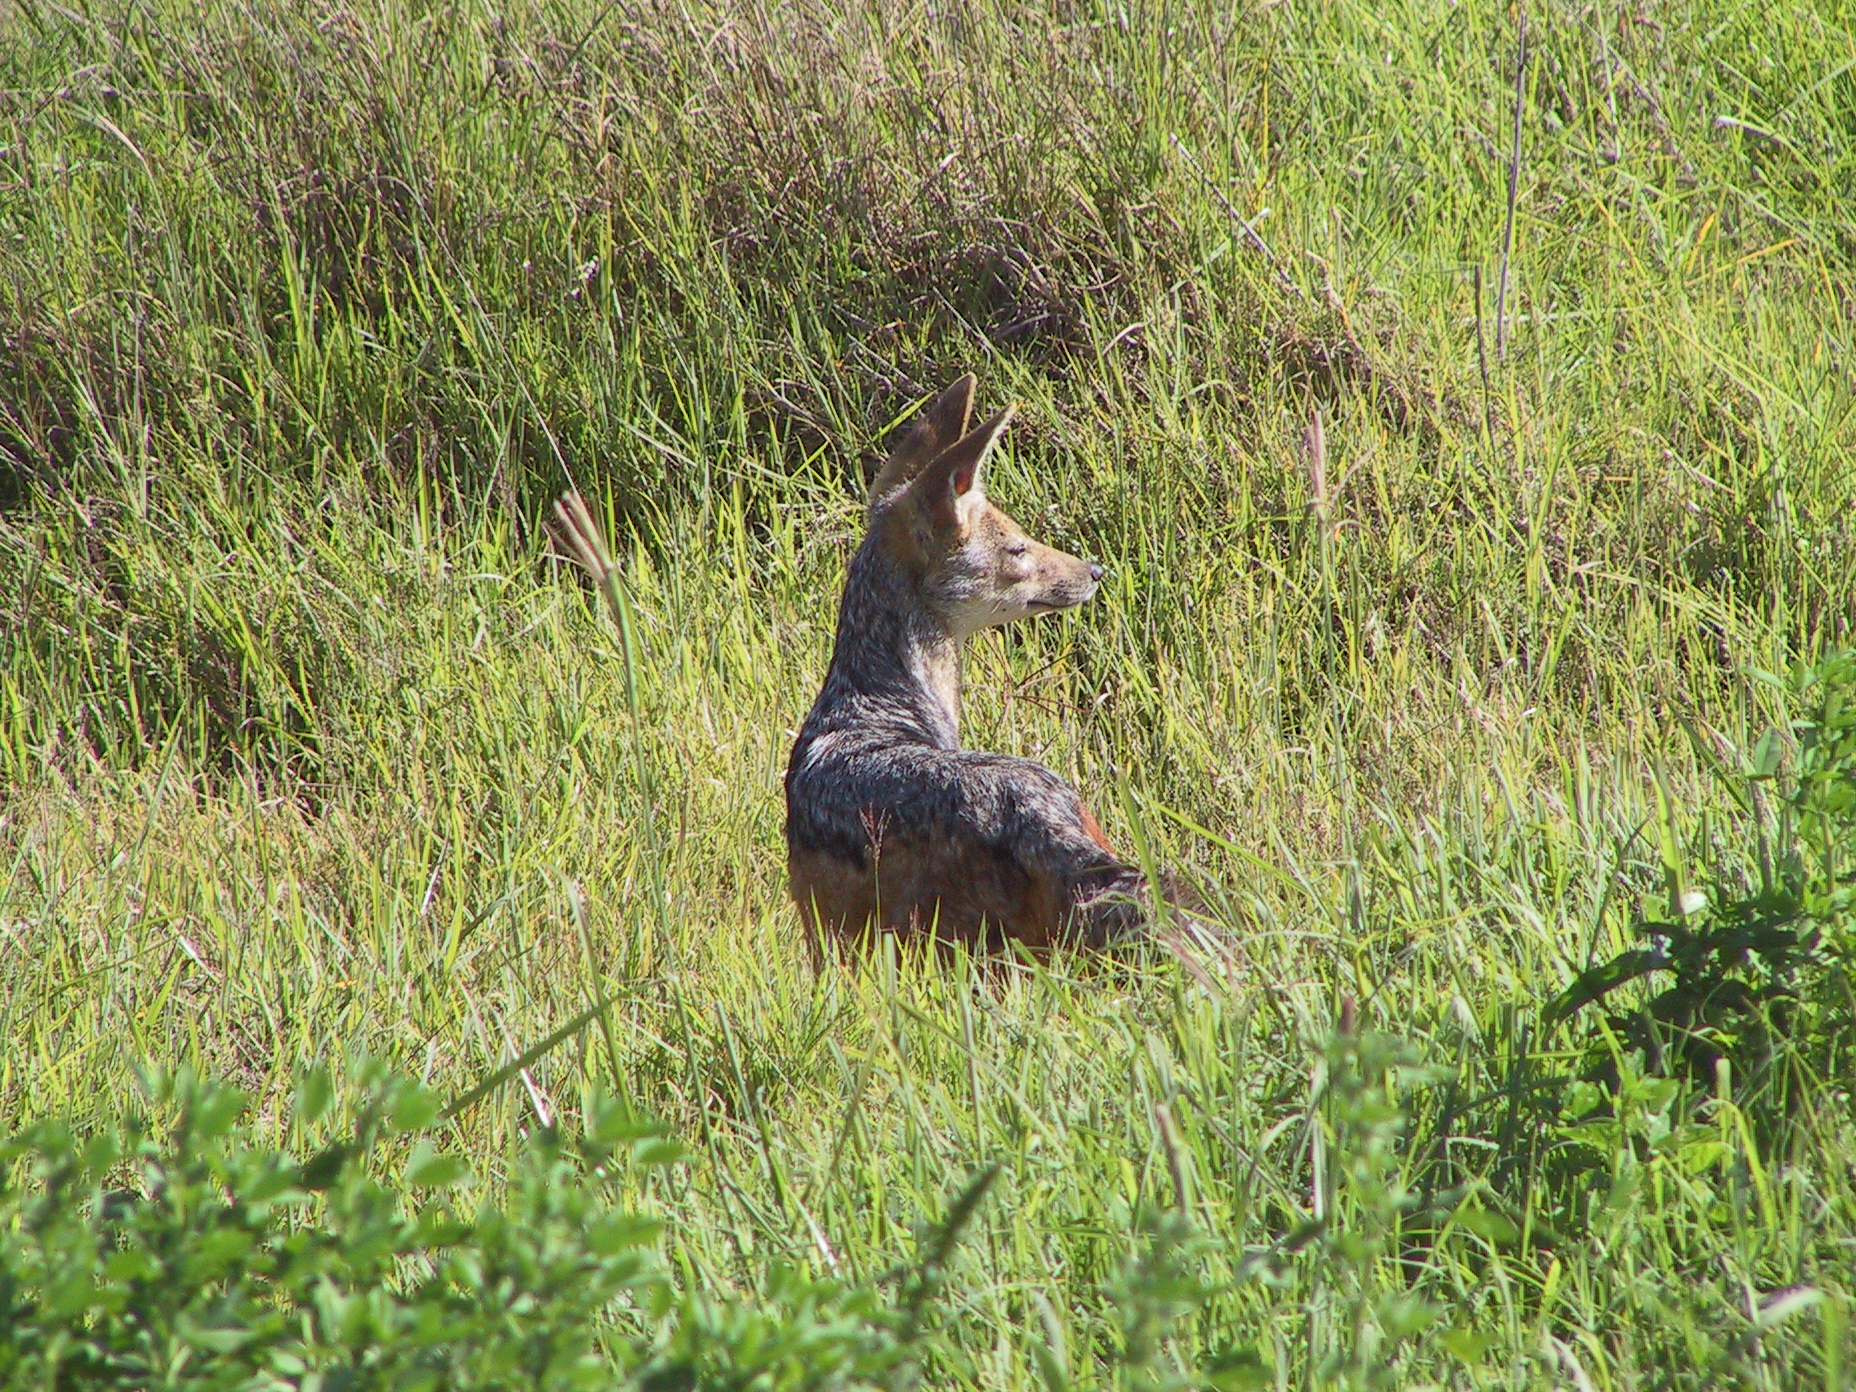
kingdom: Animalia
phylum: Chordata
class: Mammalia
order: Carnivora
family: Canidae
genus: Lupulella
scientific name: Lupulella
